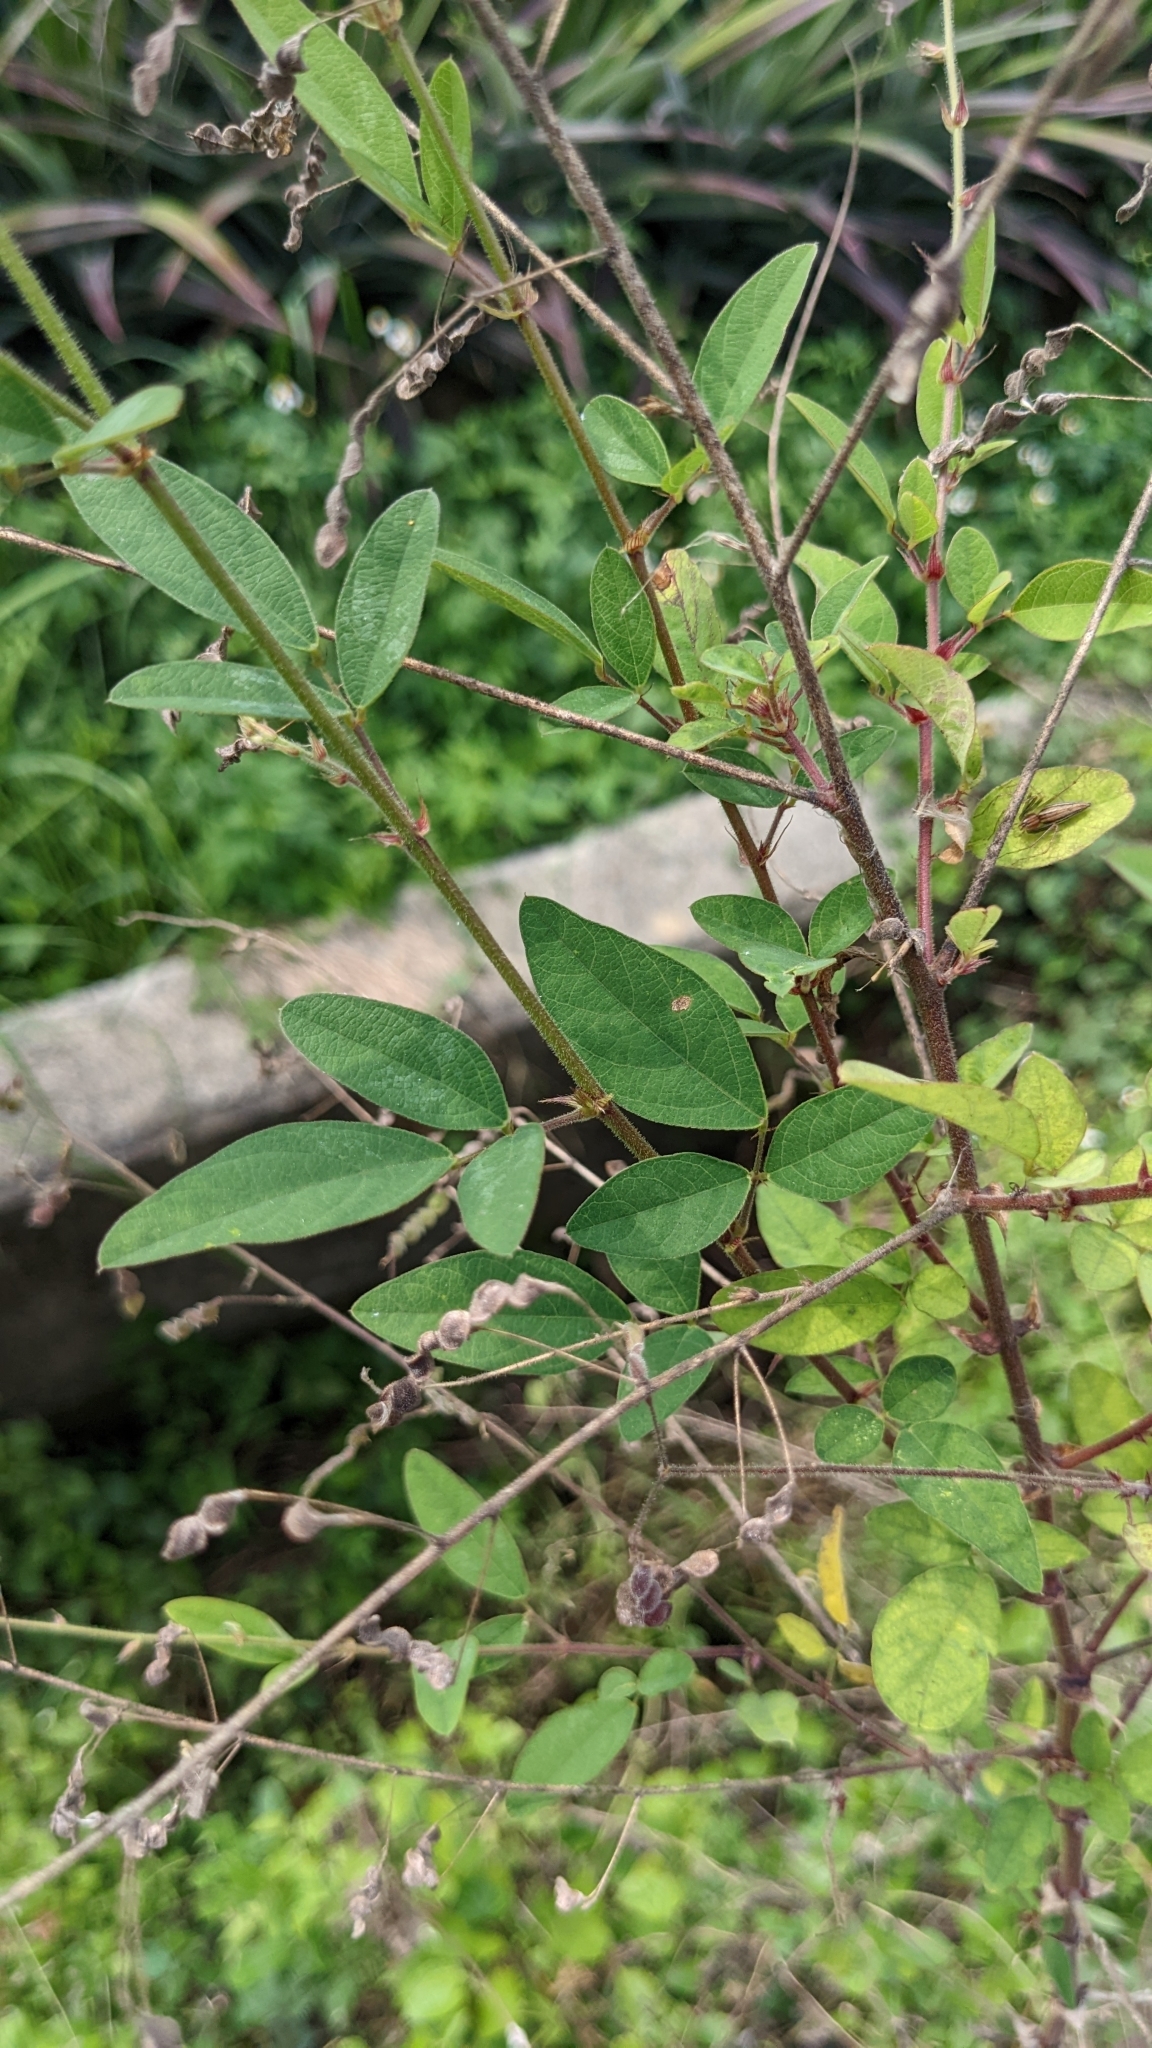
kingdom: Plantae
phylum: Tracheophyta
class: Magnoliopsida
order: Fabales
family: Fabaceae
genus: Desmodium
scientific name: Desmodium tortuosum
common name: Dixie ticktrefoil
